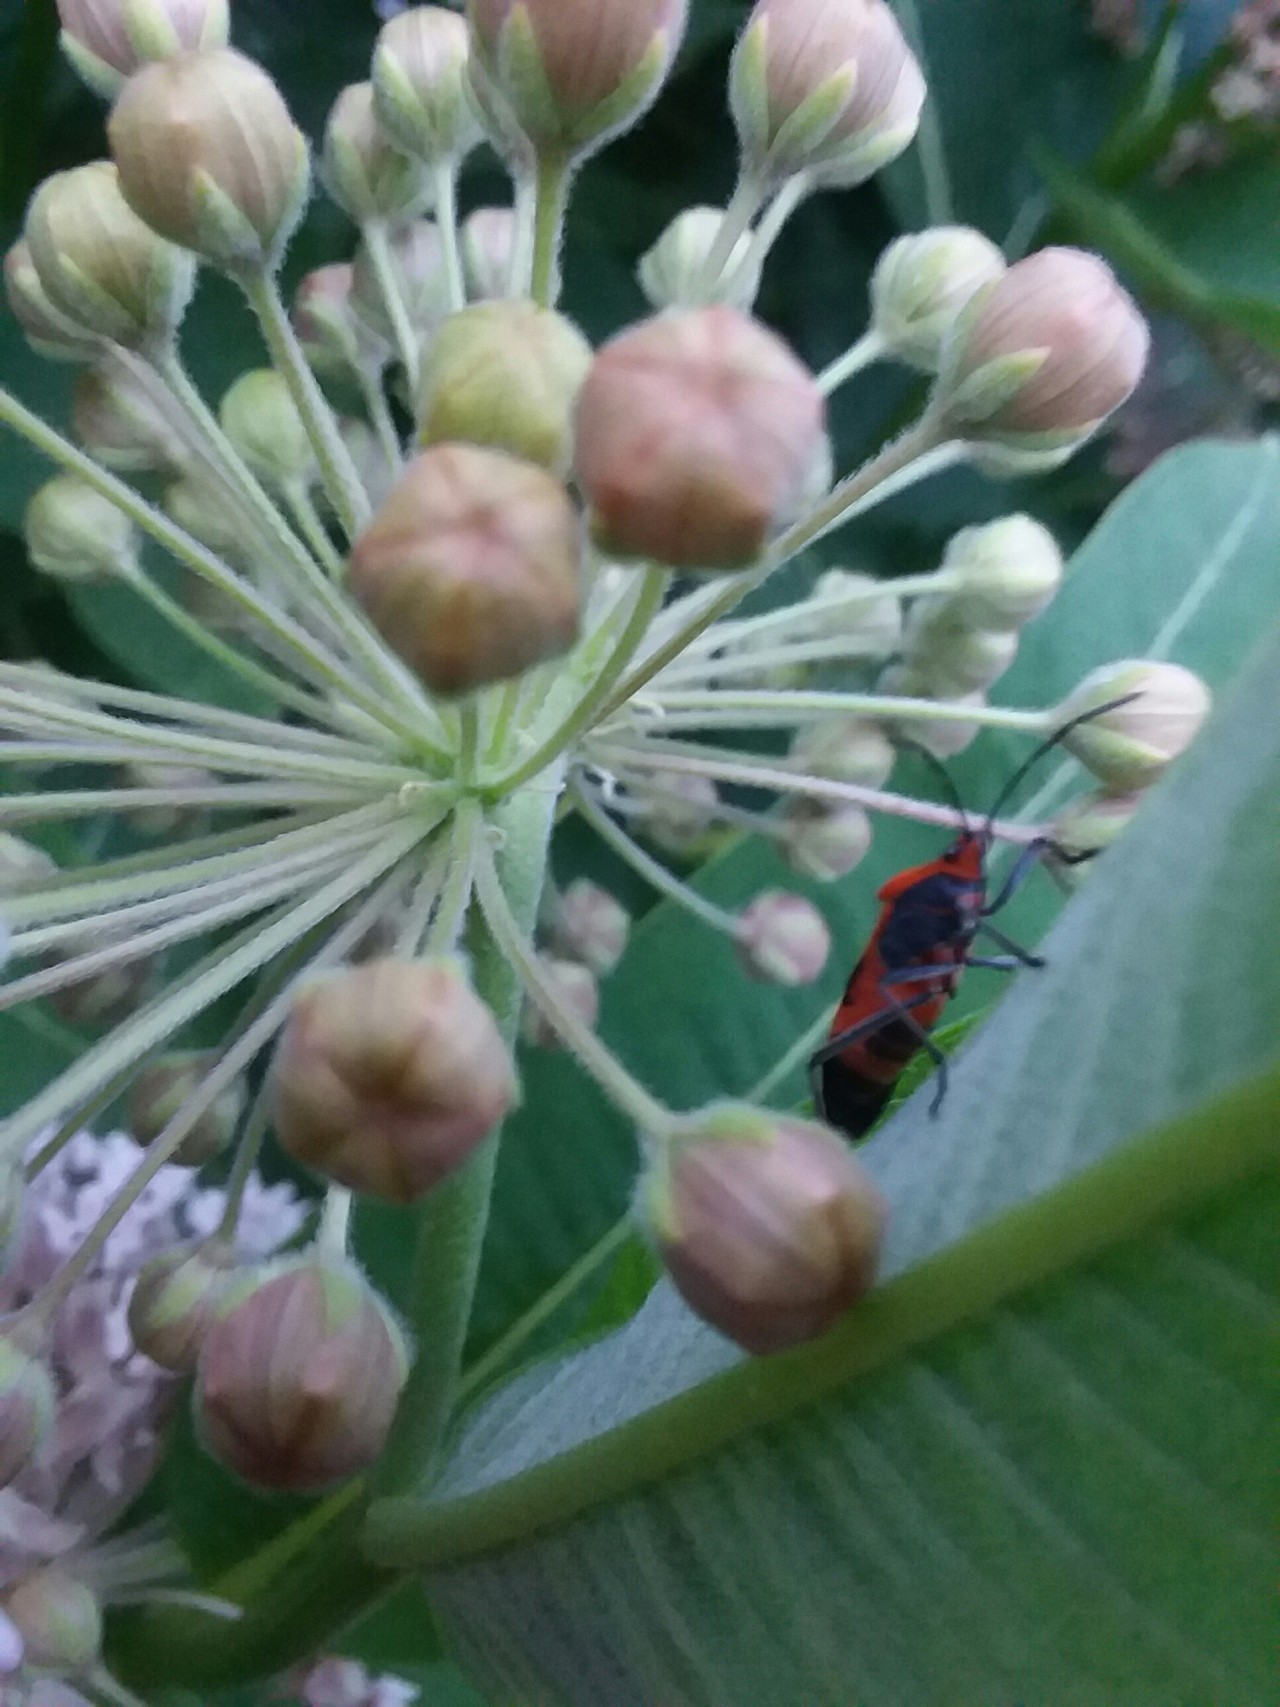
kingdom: Animalia
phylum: Arthropoda
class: Insecta
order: Hemiptera
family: Lygaeidae
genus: Oncopeltus
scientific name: Oncopeltus fasciatus
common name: Large milkweed bug
